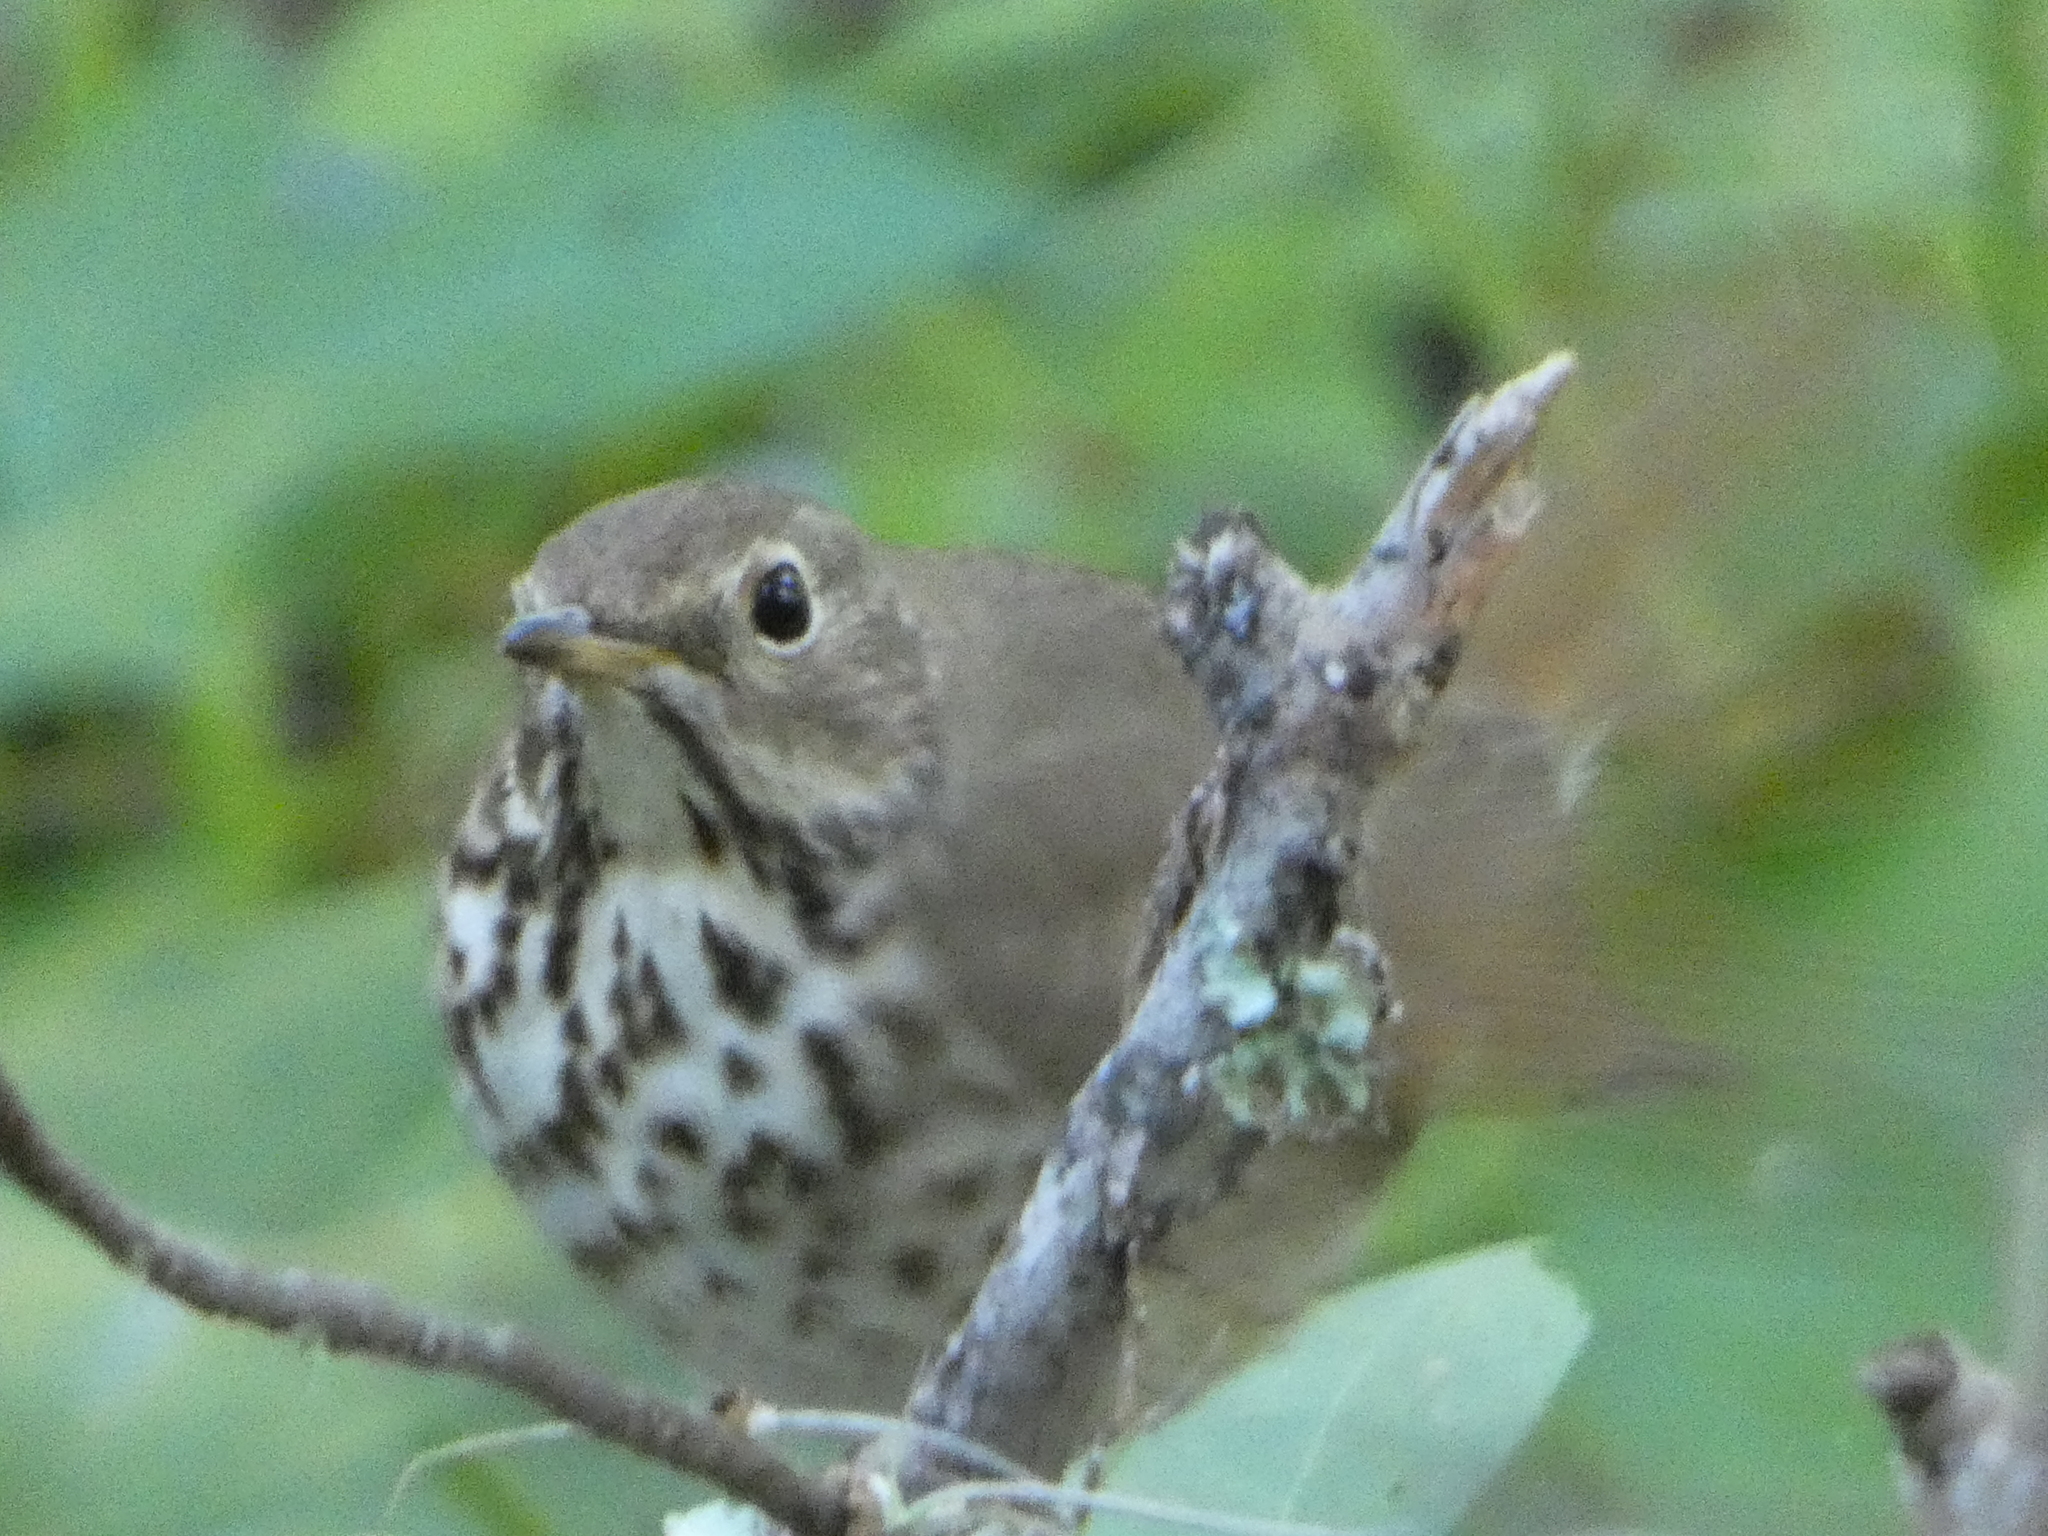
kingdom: Animalia
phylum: Chordata
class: Aves
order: Passeriformes
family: Turdidae
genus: Catharus
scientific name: Catharus guttatus
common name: Hermit thrush
